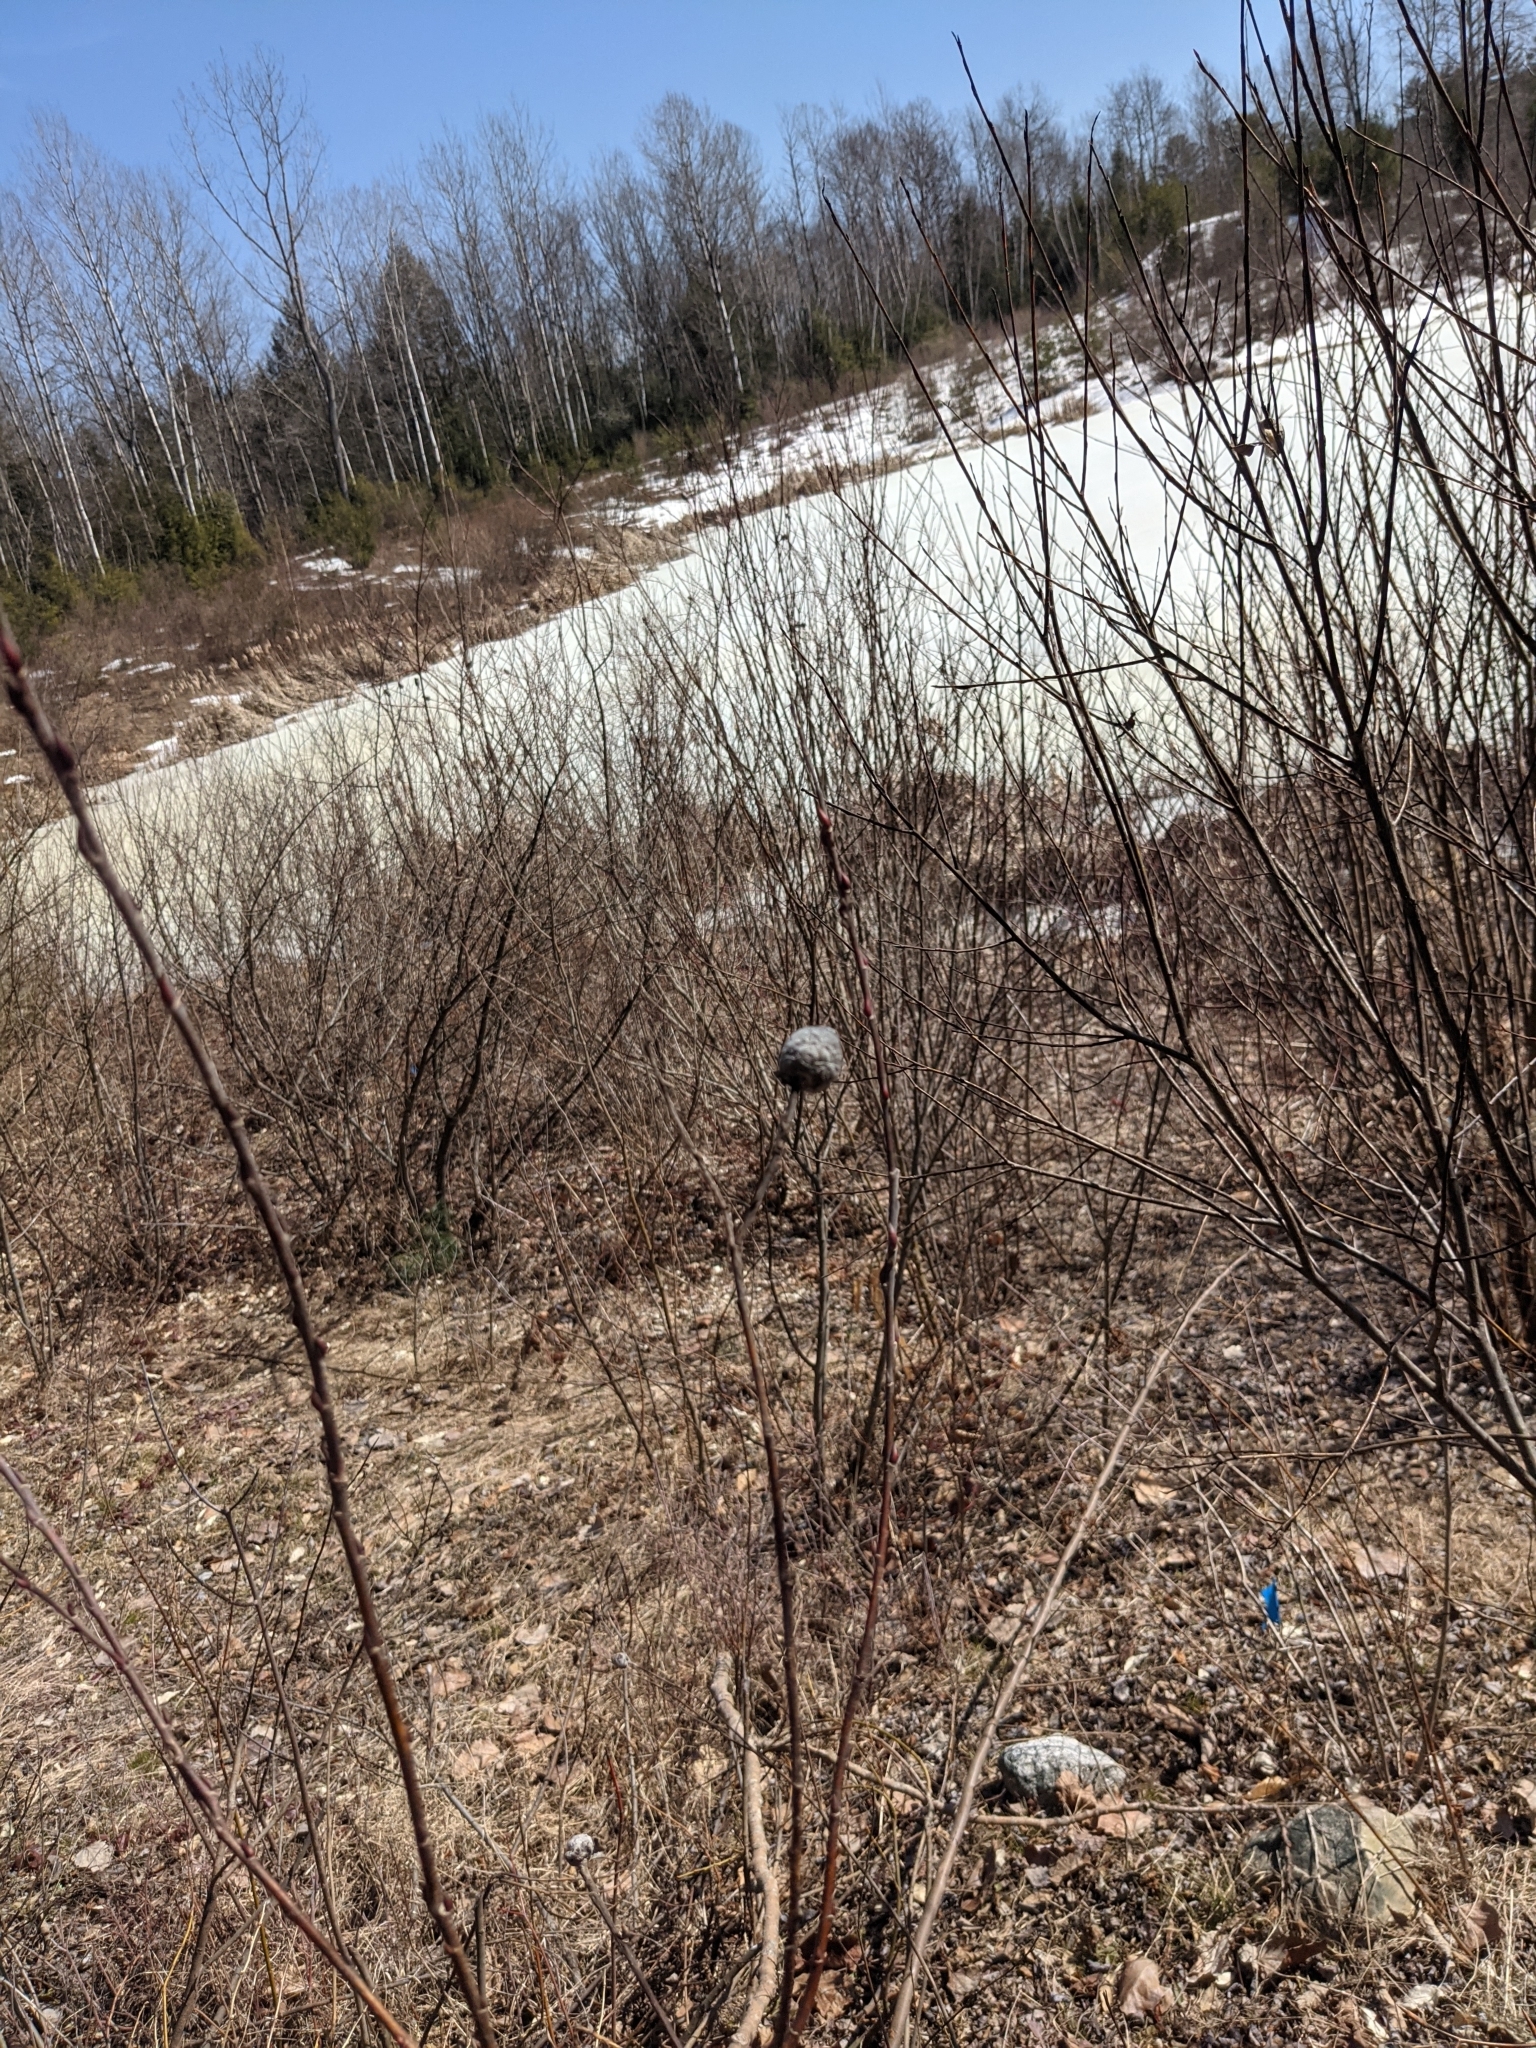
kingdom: Animalia
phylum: Arthropoda
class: Insecta
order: Diptera
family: Cecidomyiidae
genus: Rabdophaga
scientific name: Rabdophaga strobiloides
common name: Willow pinecone gall midge
